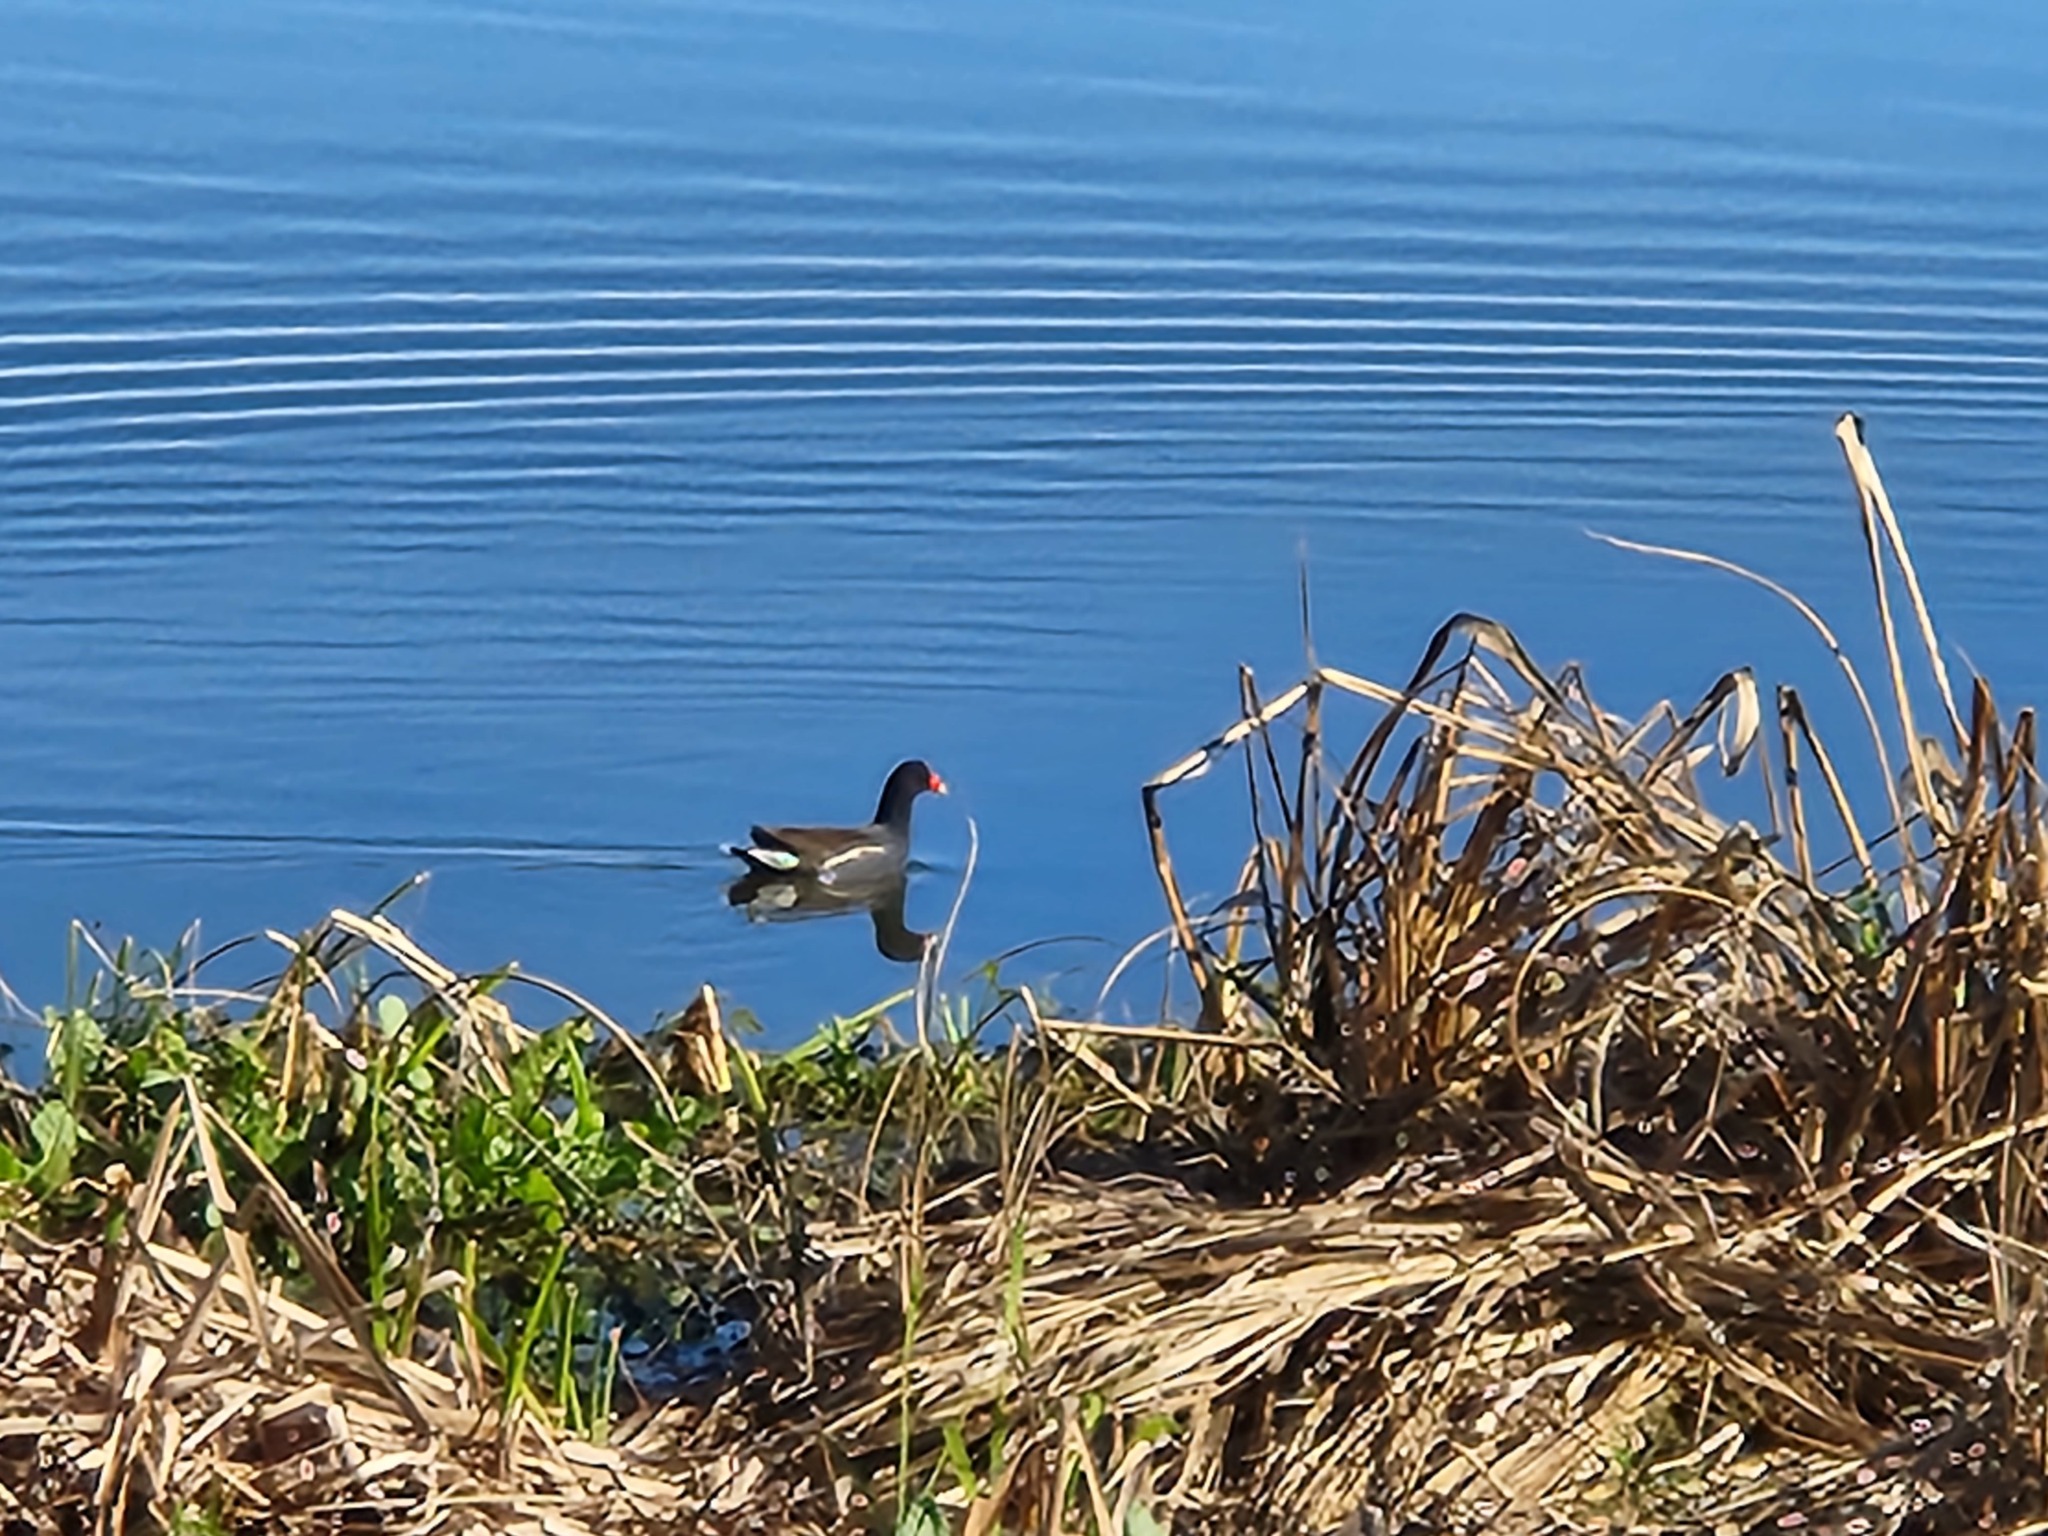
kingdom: Animalia
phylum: Chordata
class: Aves
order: Gruiformes
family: Rallidae
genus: Gallinula
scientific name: Gallinula chloropus
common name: Common moorhen
